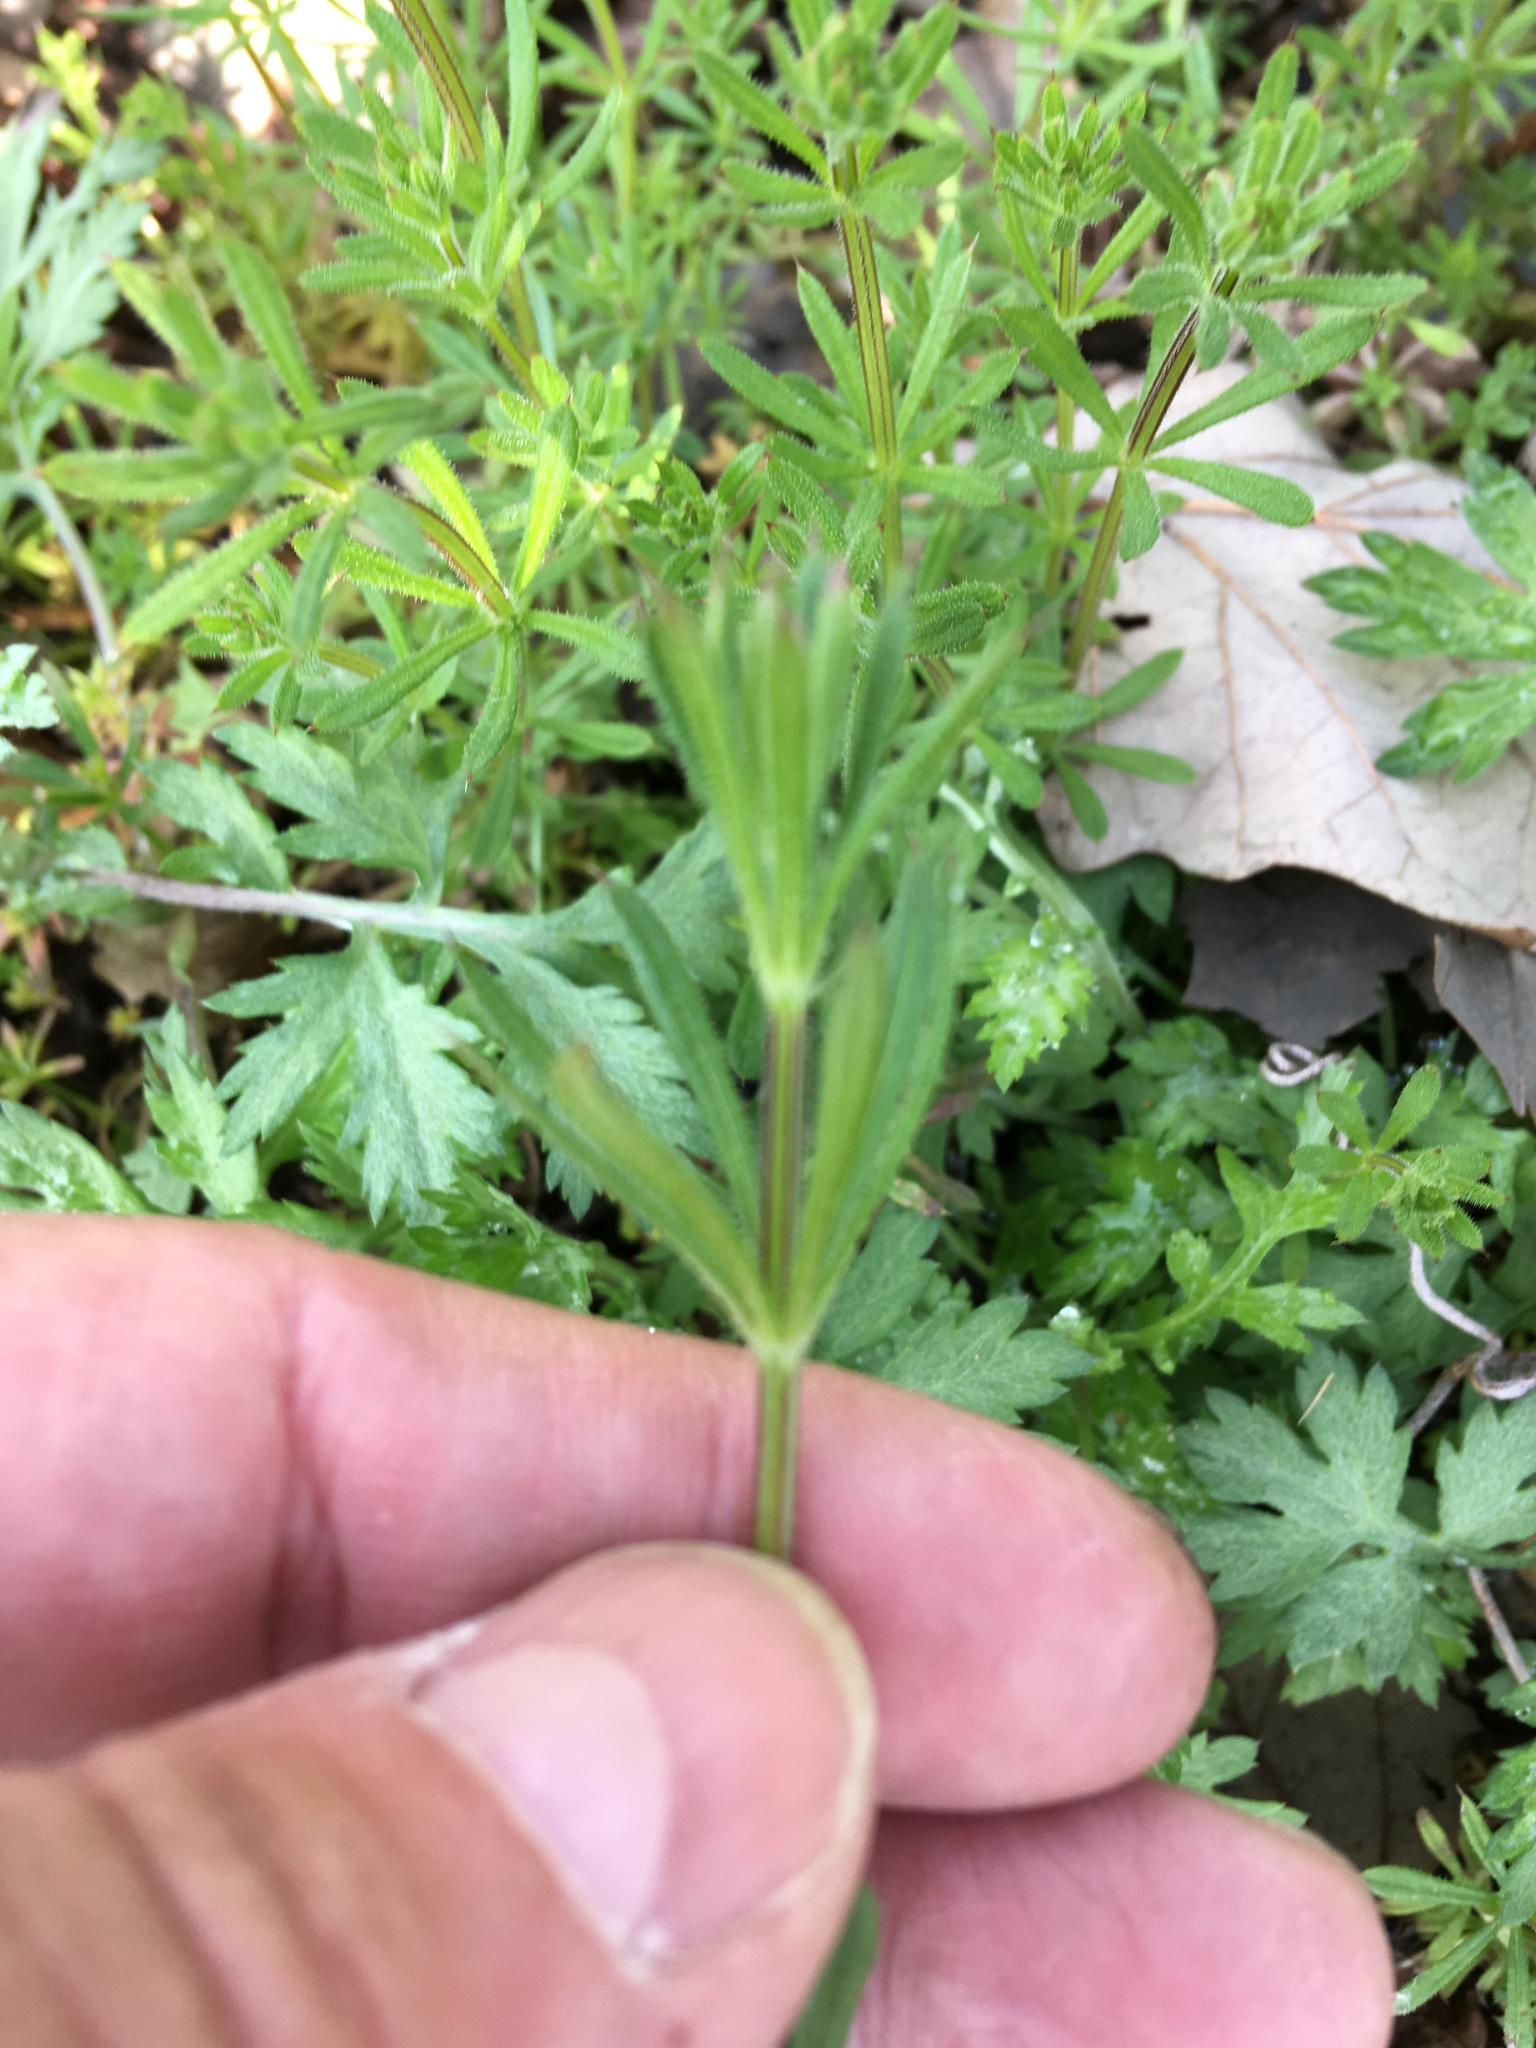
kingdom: Plantae
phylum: Tracheophyta
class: Magnoliopsida
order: Gentianales
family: Rubiaceae
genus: Galium
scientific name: Galium aparine
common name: Cleavers
